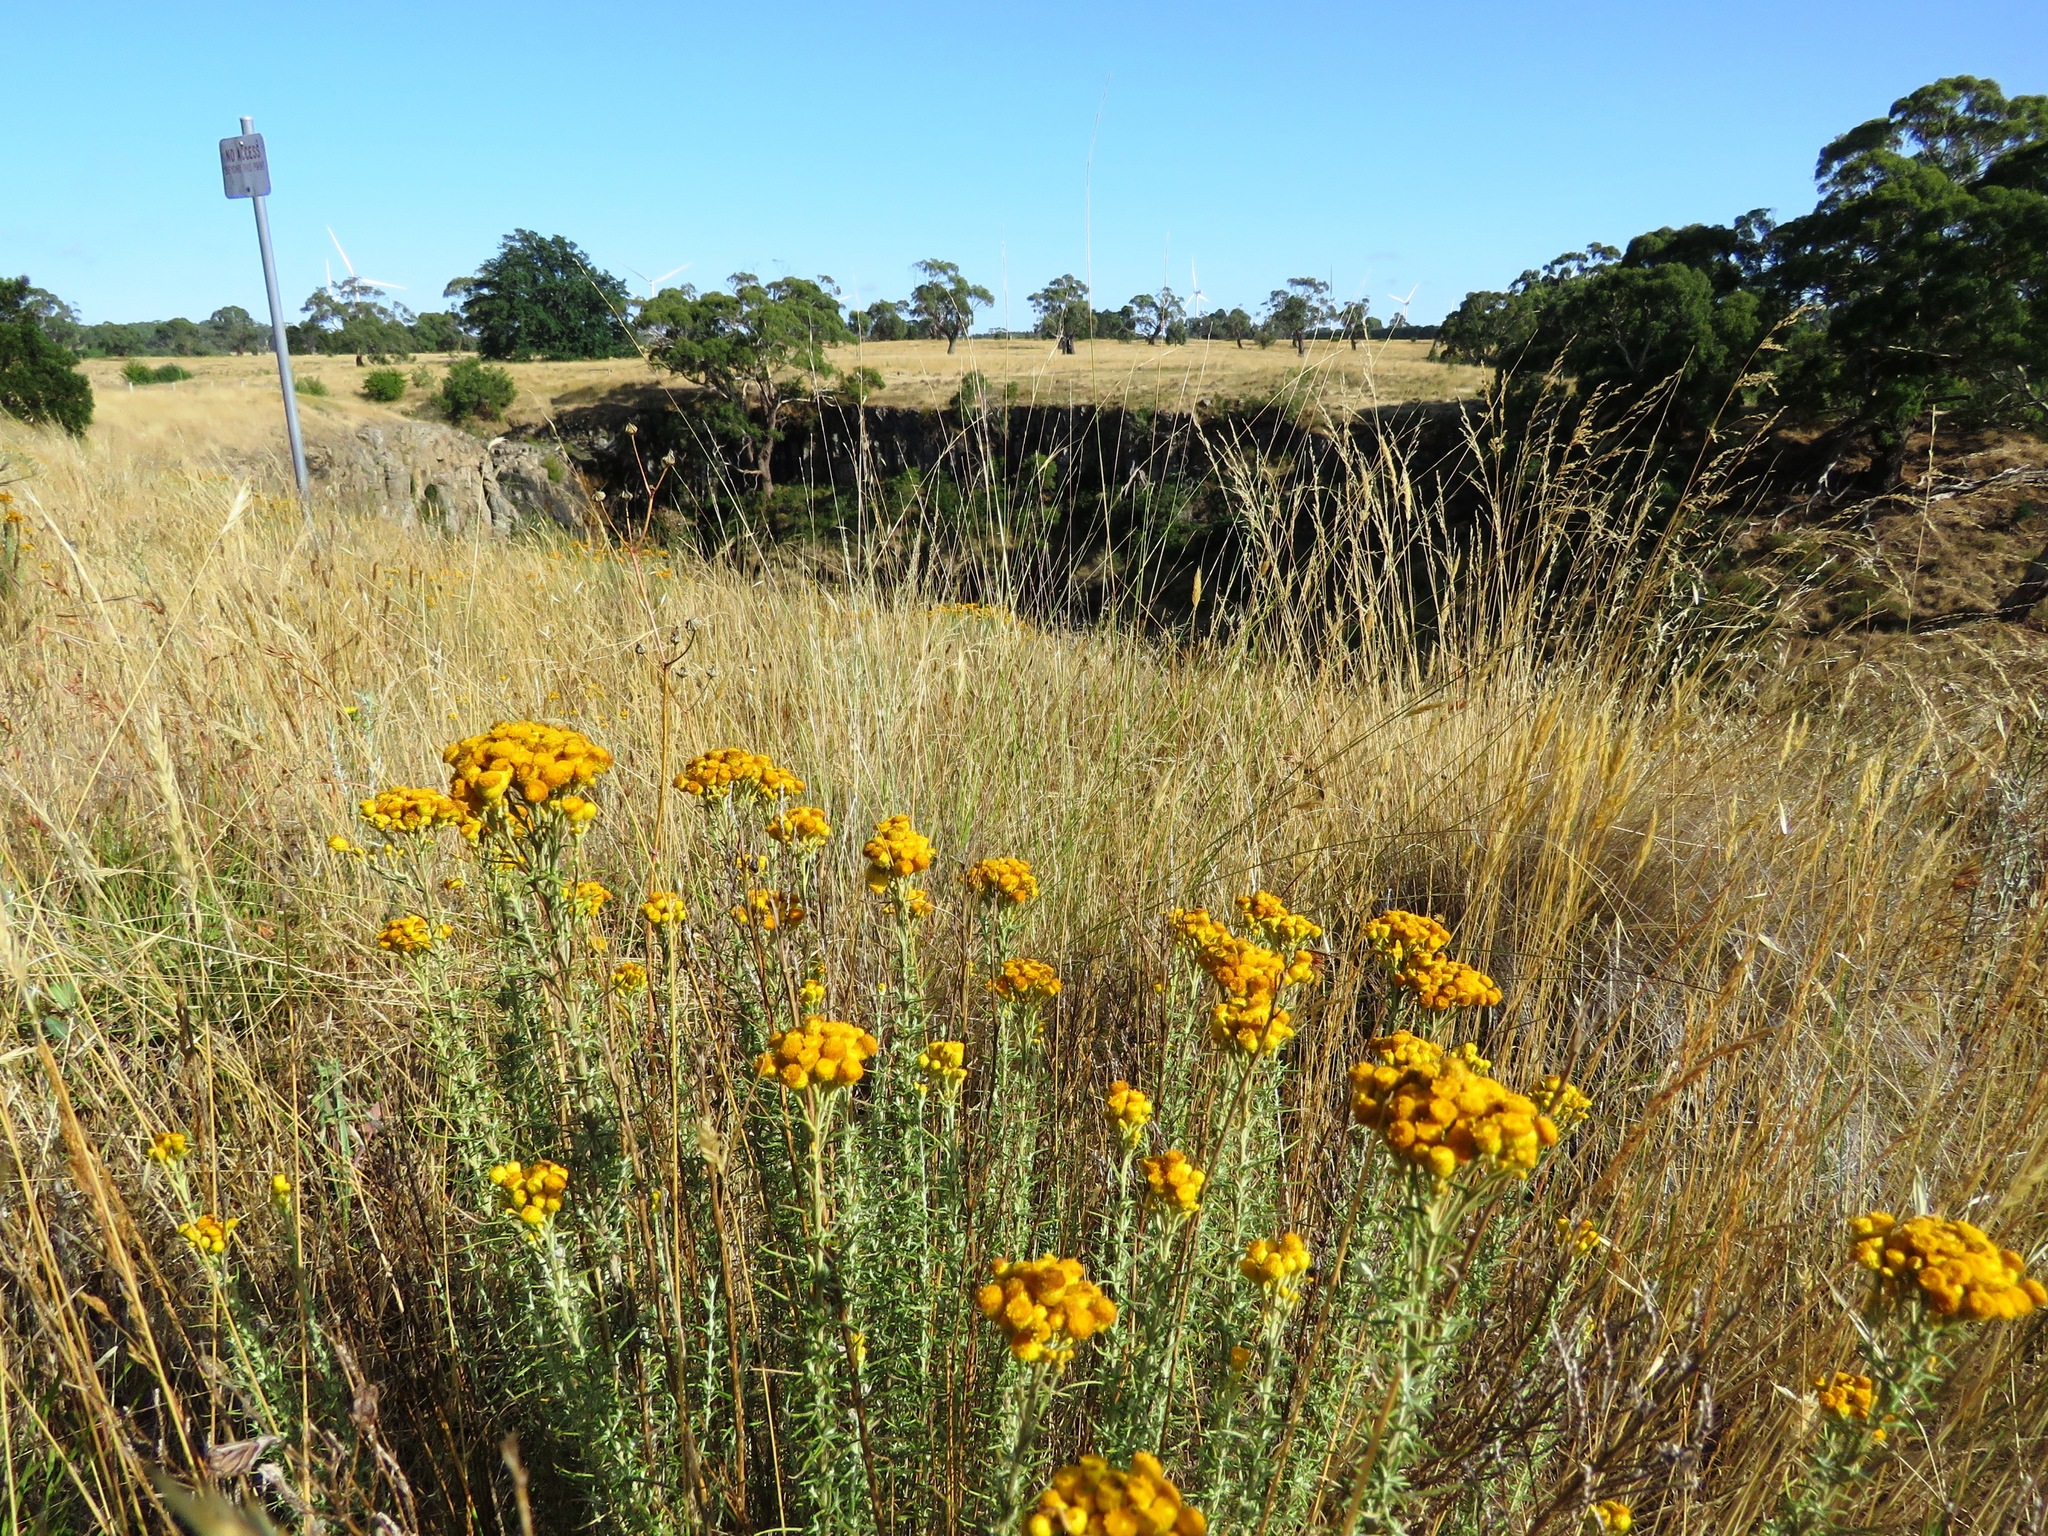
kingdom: Plantae
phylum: Tracheophyta
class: Magnoliopsida
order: Asterales
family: Asteraceae
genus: Chrysocephalum
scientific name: Chrysocephalum semipapposum
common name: Clustered everlasting
